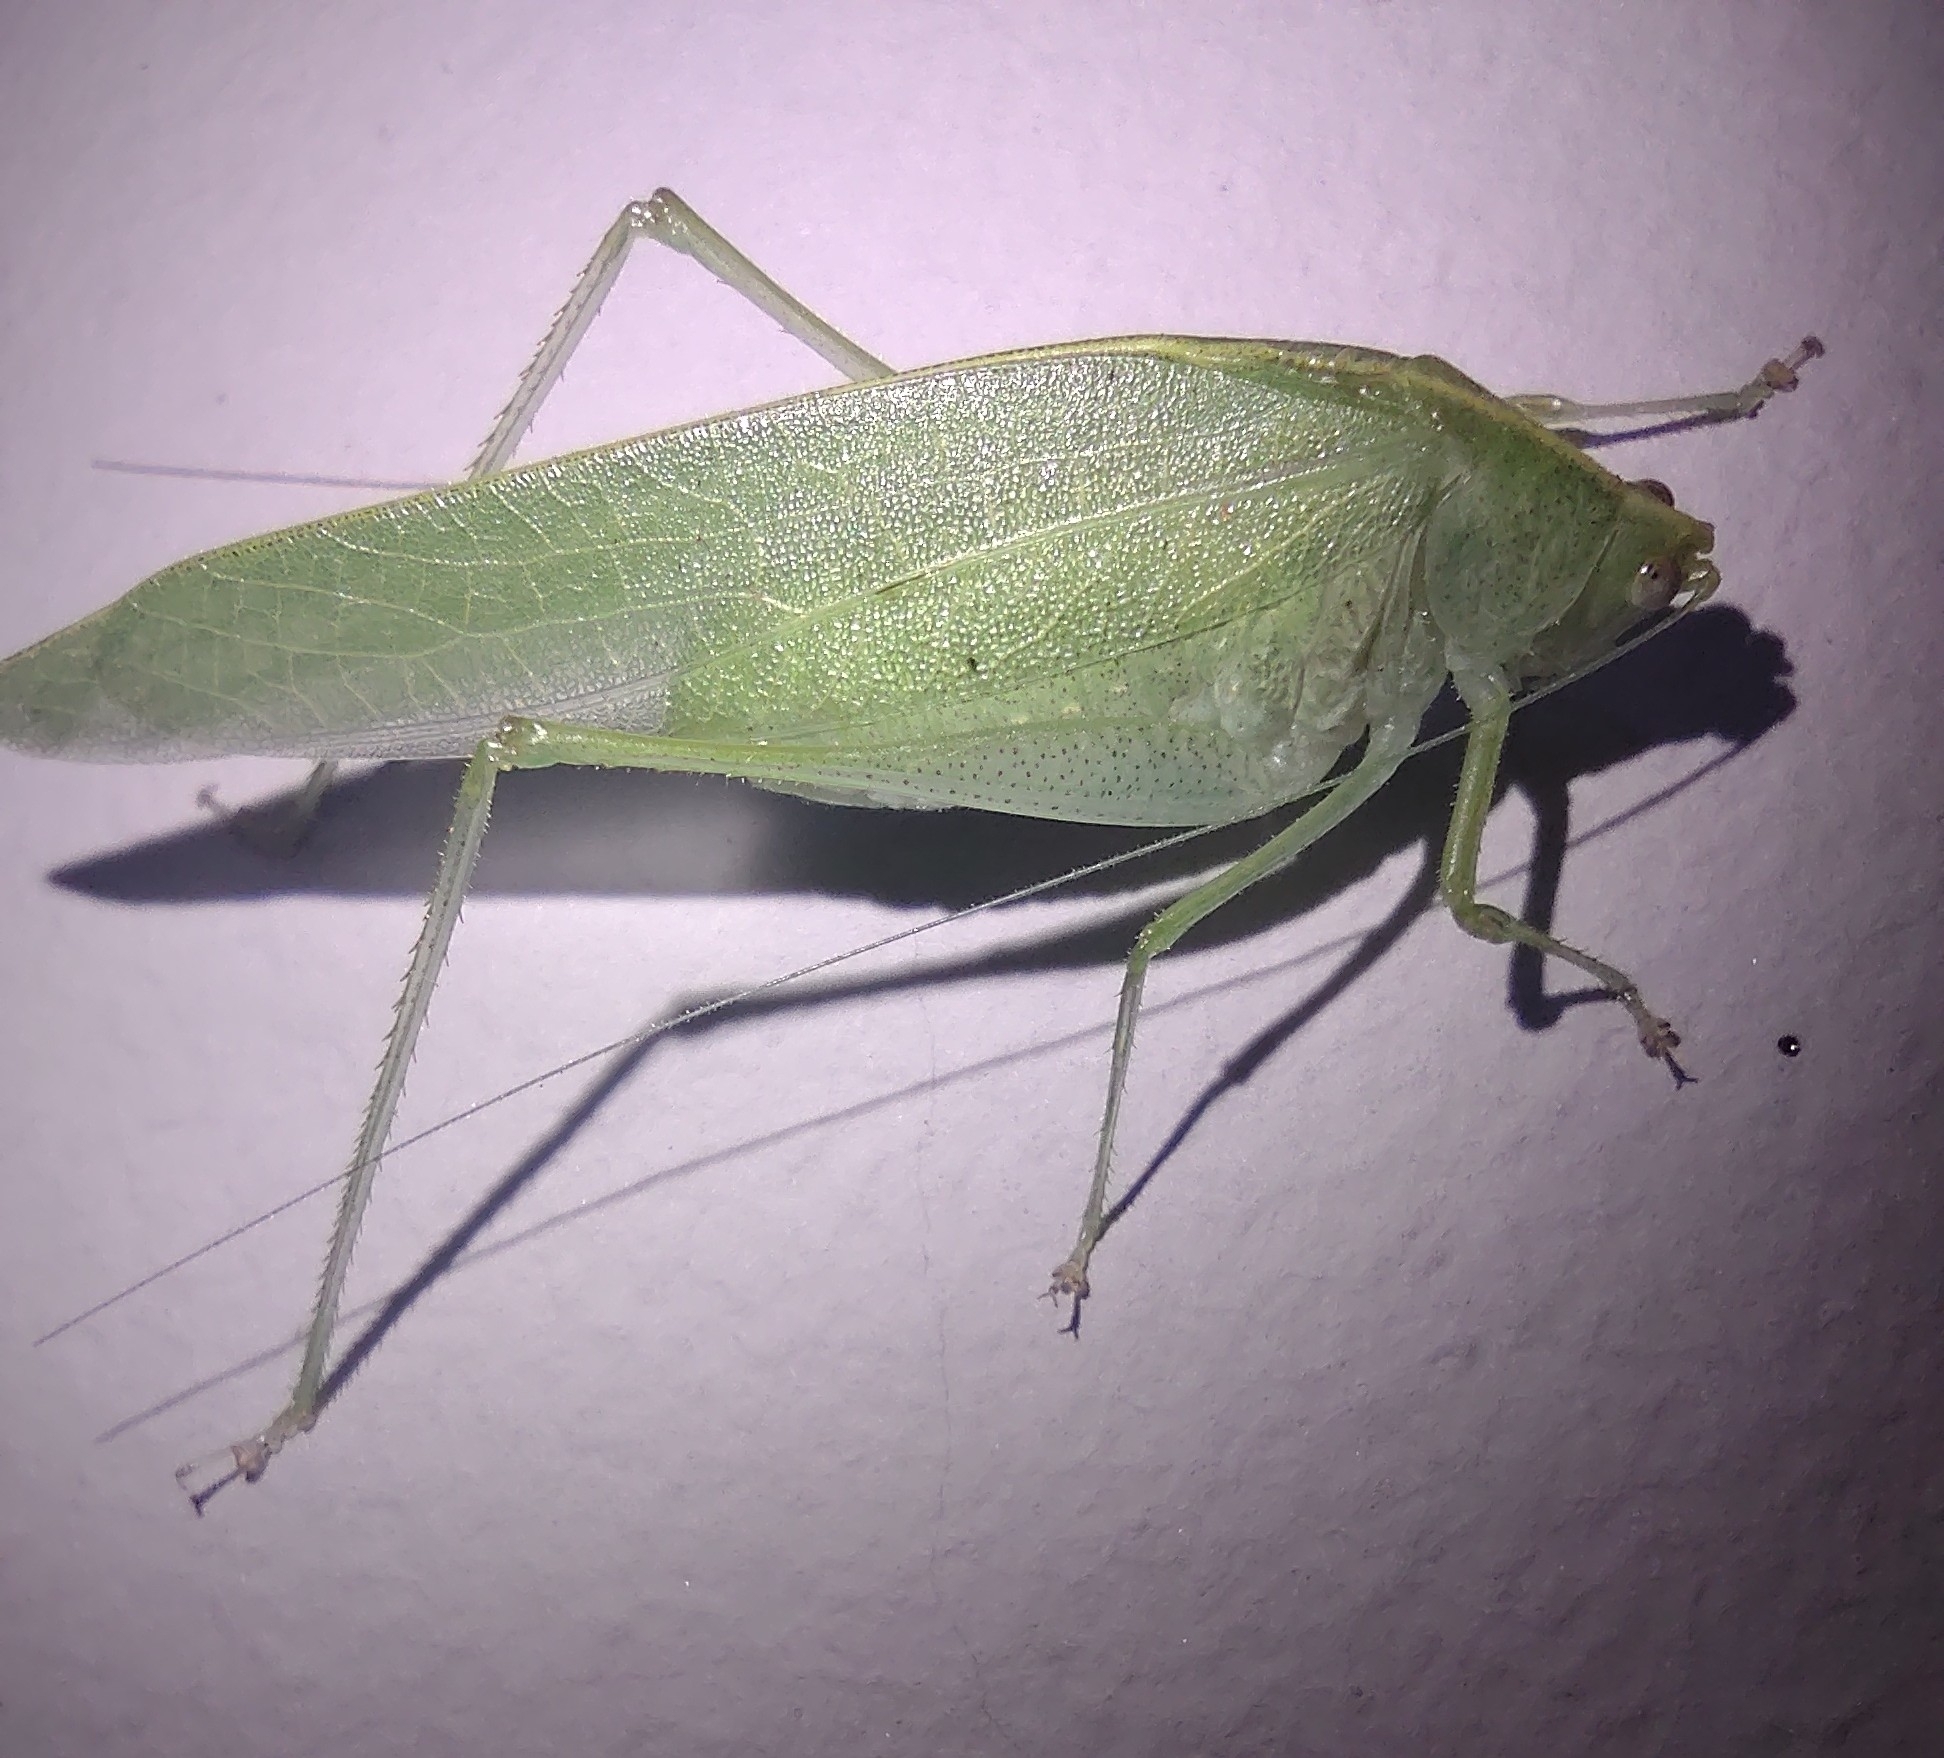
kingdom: Animalia
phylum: Arthropoda
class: Insecta
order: Orthoptera
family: Tettigoniidae
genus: Grammadera
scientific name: Grammadera clara
